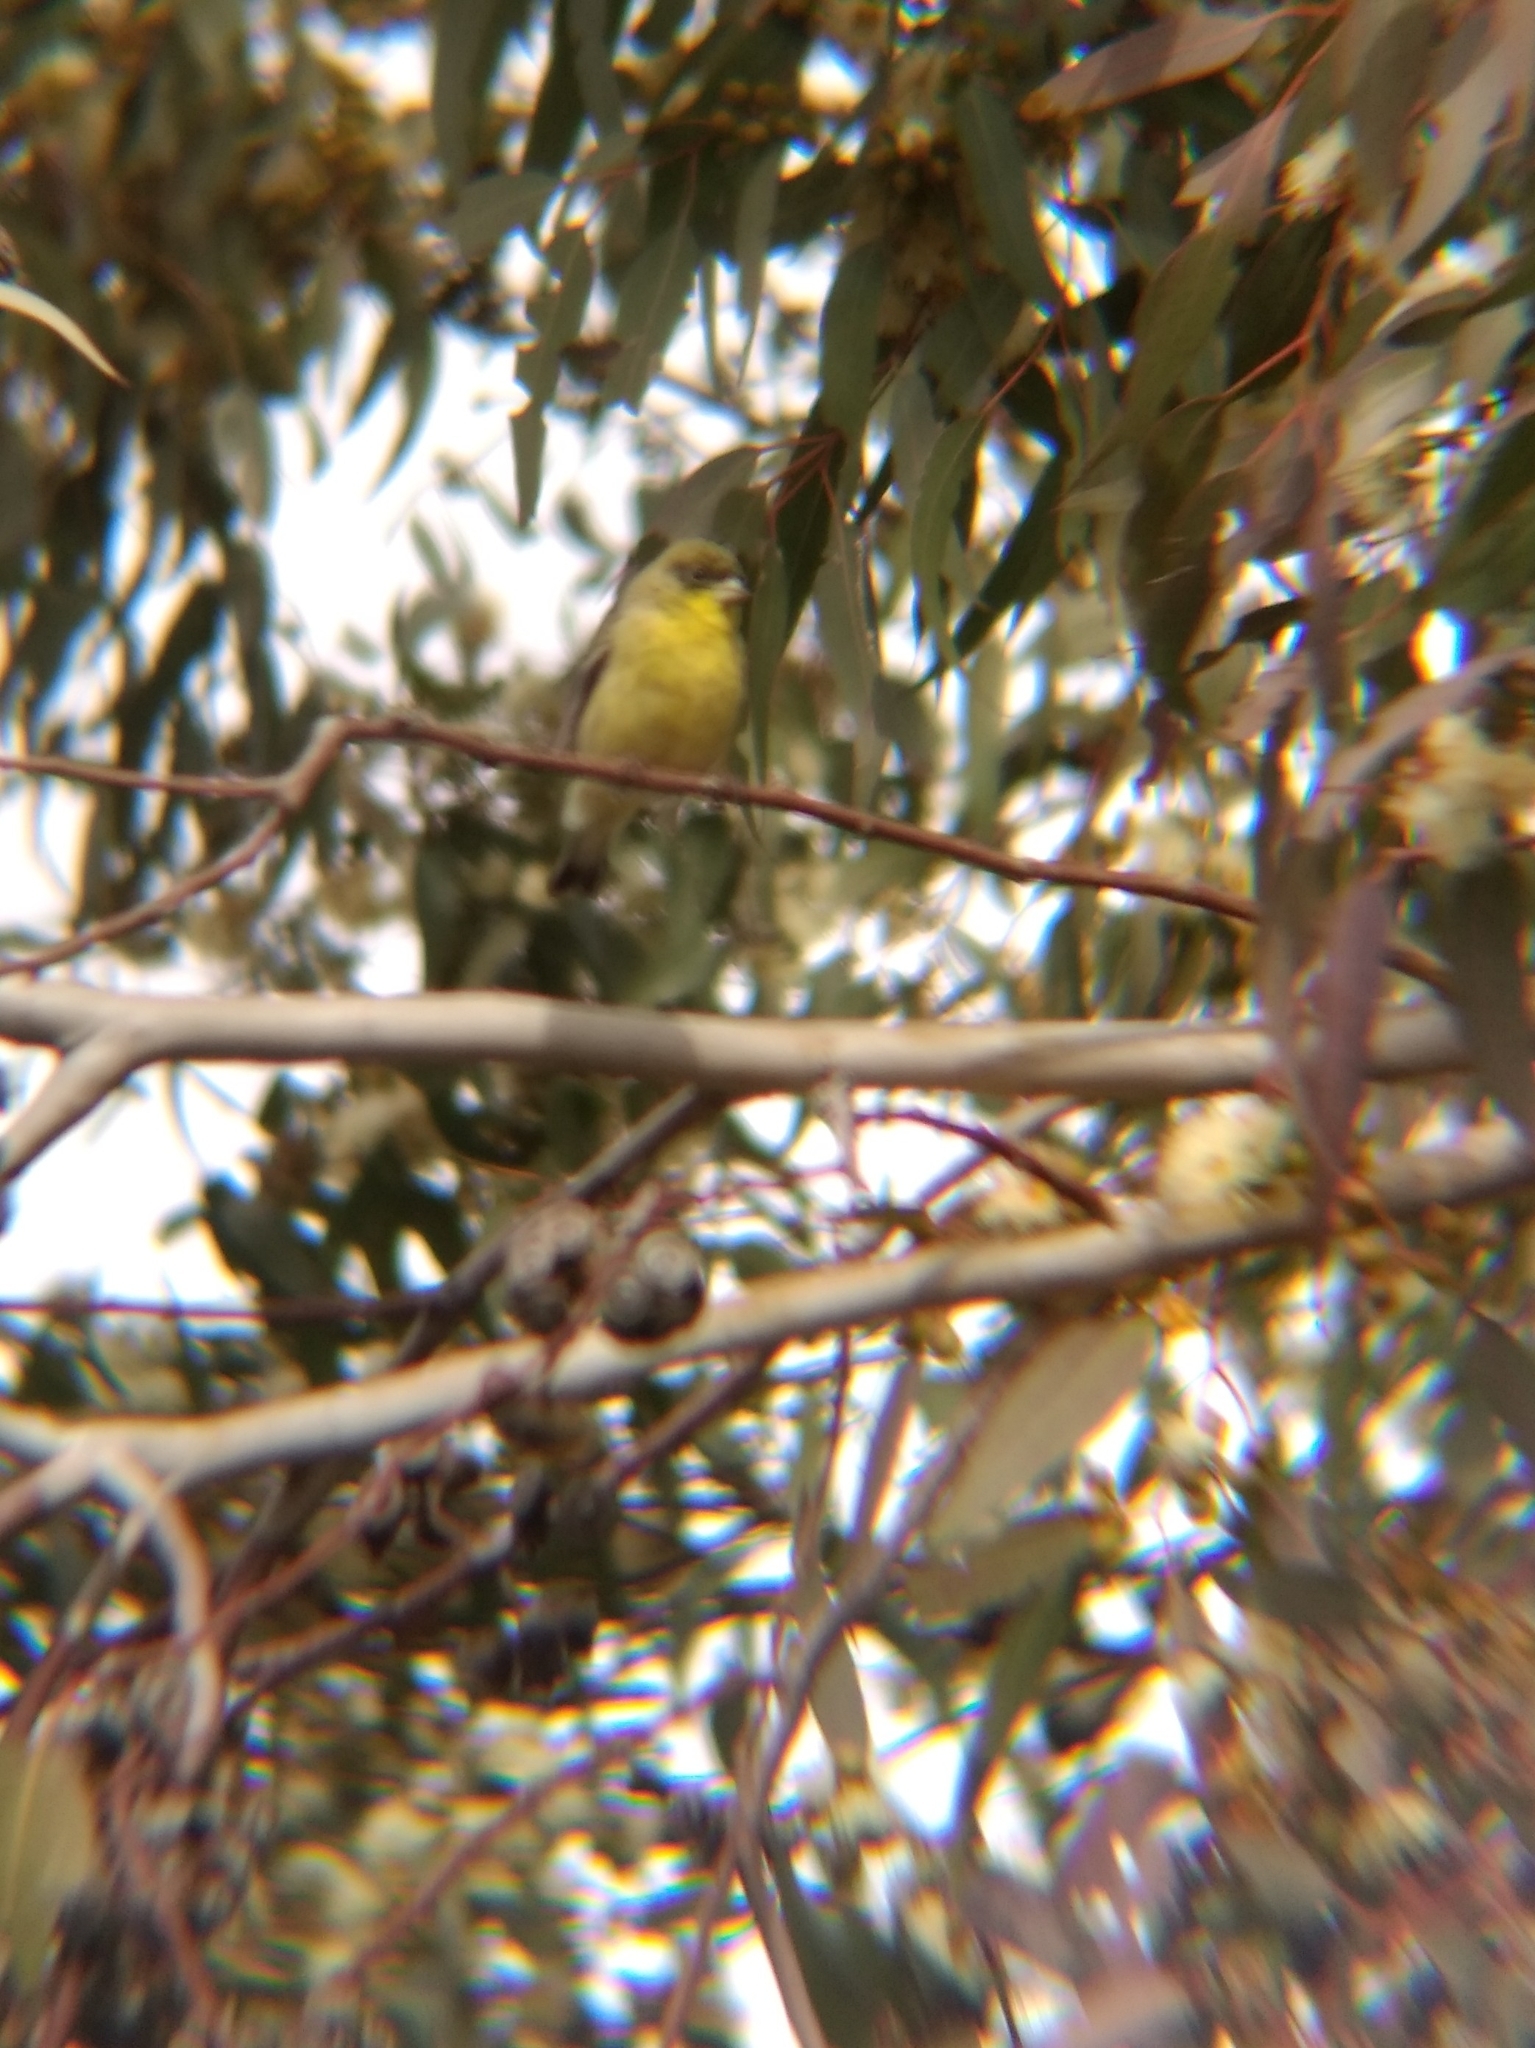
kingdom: Animalia
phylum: Chordata
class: Aves
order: Passeriformes
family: Fringillidae
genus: Spinus
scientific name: Spinus psaltria
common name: Lesser goldfinch
